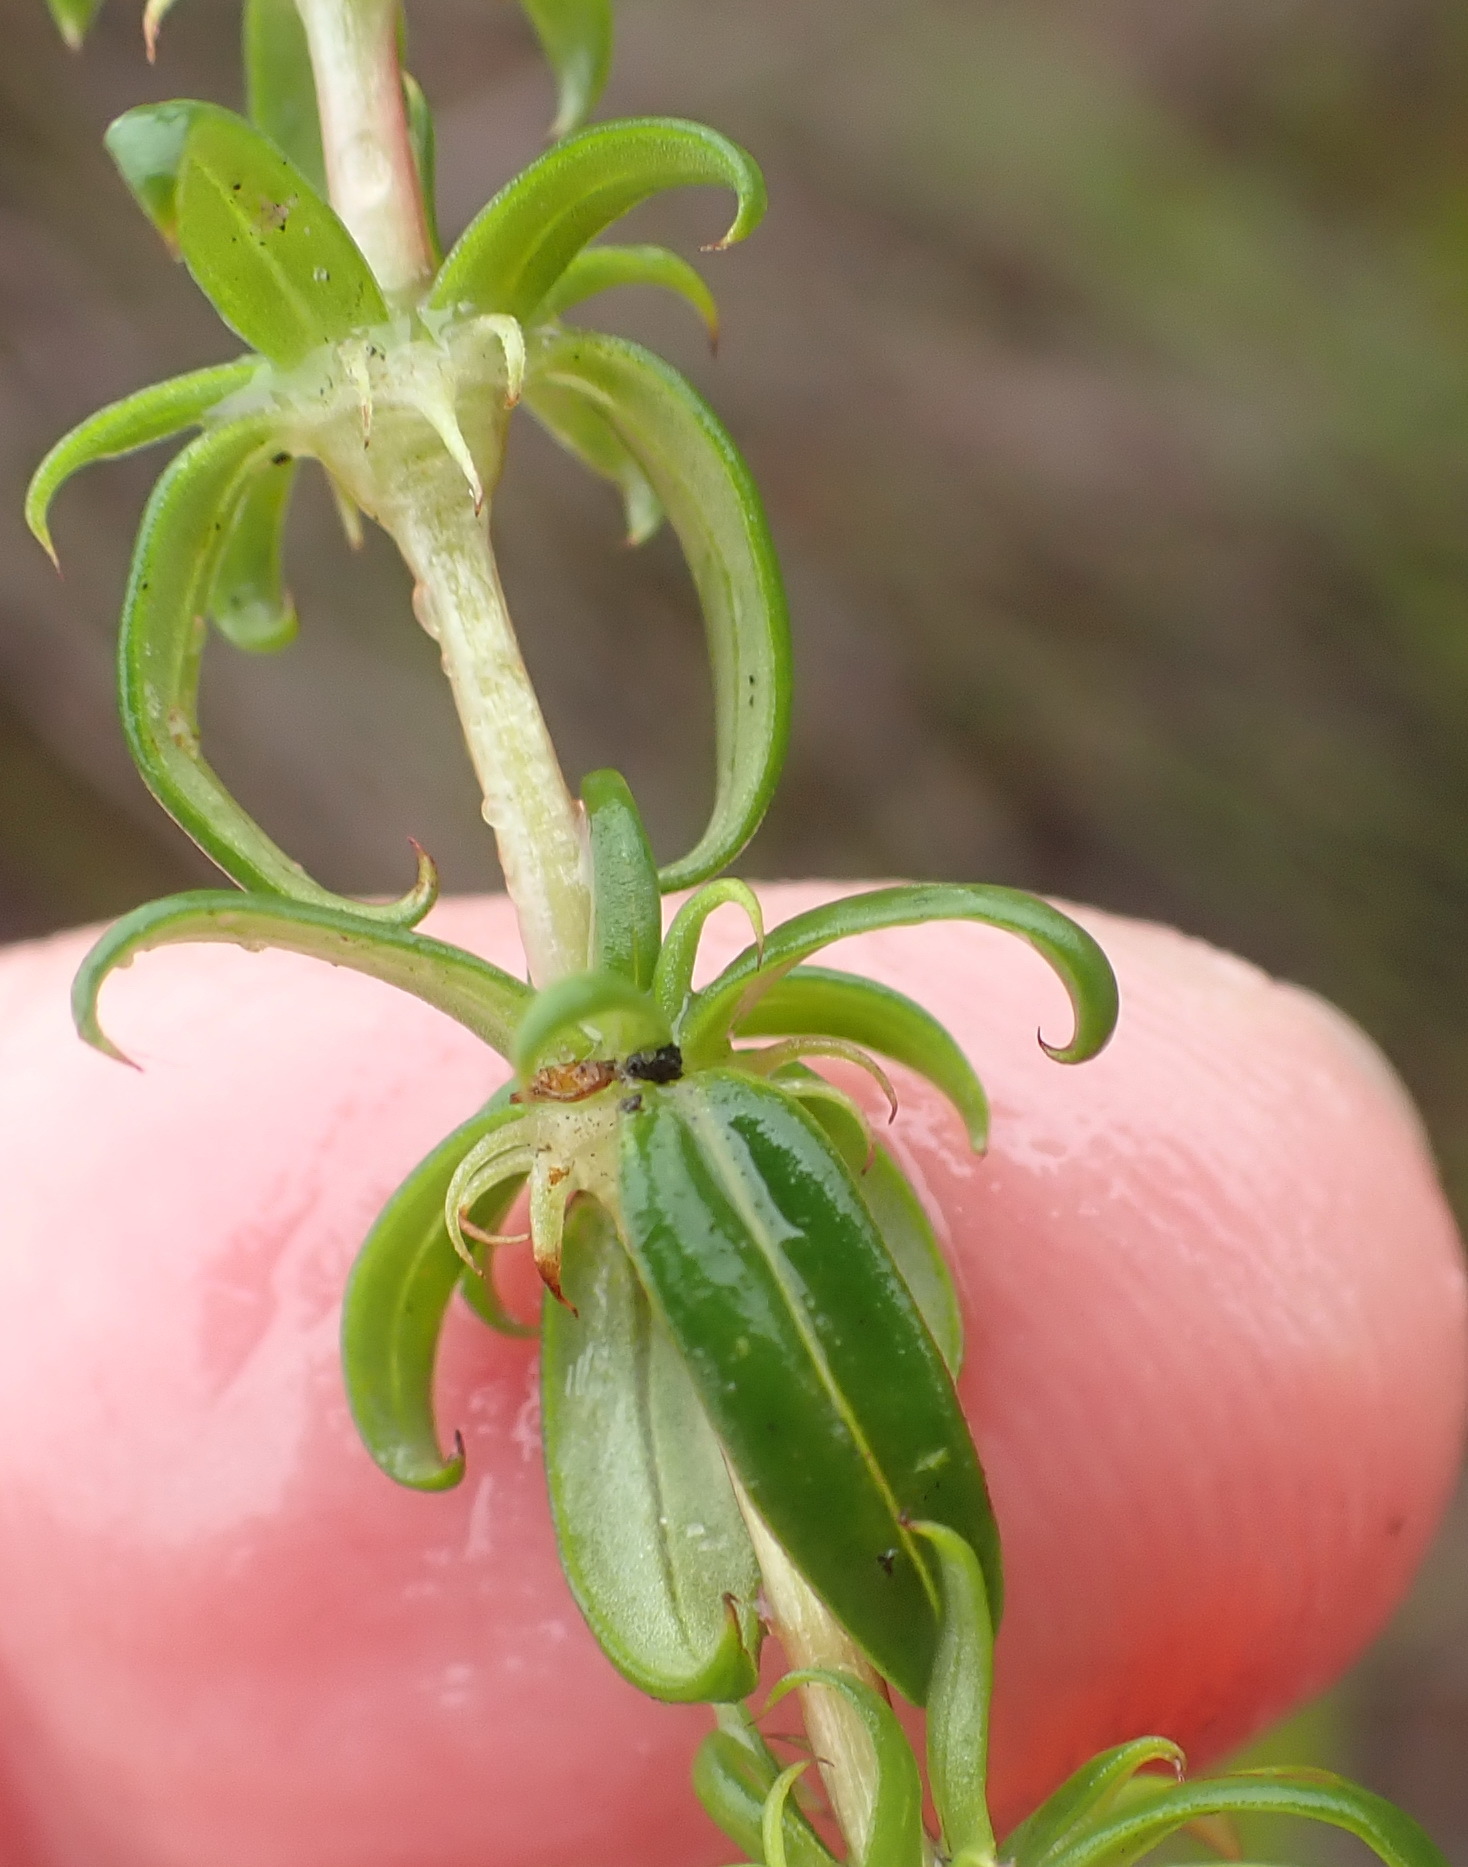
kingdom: Plantae
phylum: Tracheophyta
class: Magnoliopsida
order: Gentianales
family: Rubiaceae
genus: Anthospermum
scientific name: Anthospermum prostratum
